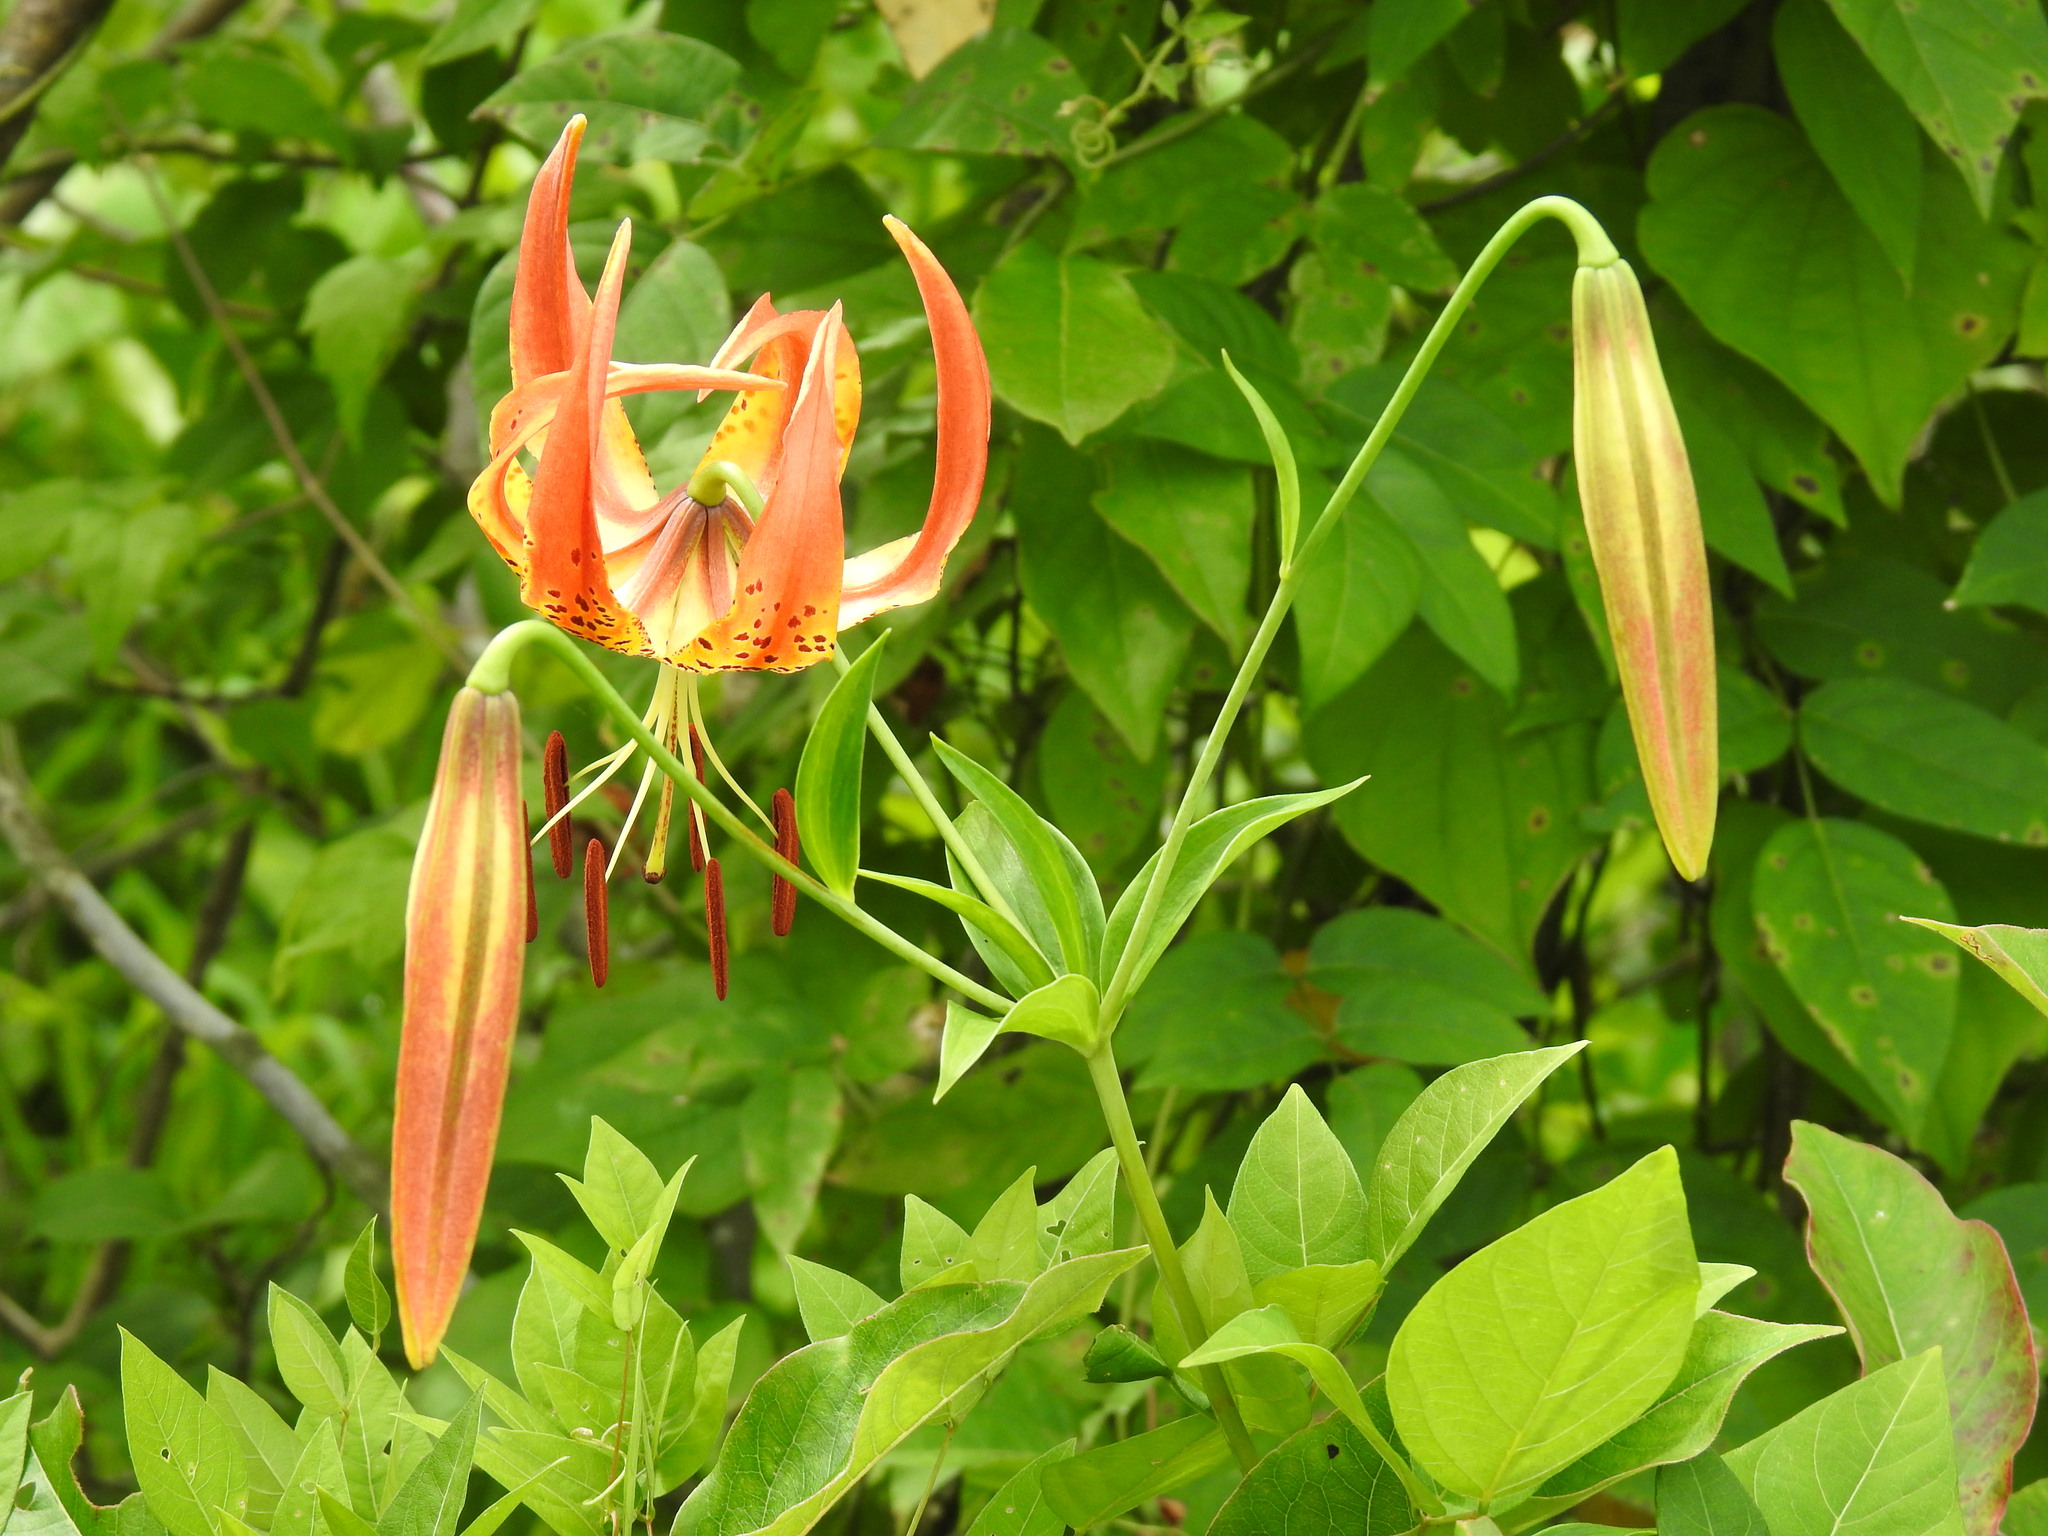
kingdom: Plantae
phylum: Tracheophyta
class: Liliopsida
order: Liliales
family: Liliaceae
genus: Lilium
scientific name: Lilium superbum
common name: American turk's-cap lily
